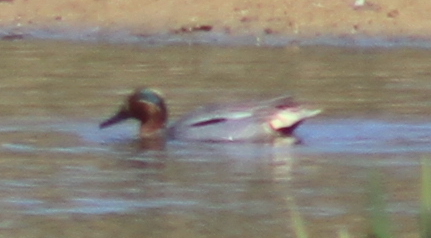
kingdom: Animalia
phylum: Chordata
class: Aves
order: Anseriformes
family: Anatidae
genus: Anas
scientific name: Anas crecca
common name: Eurasian teal
